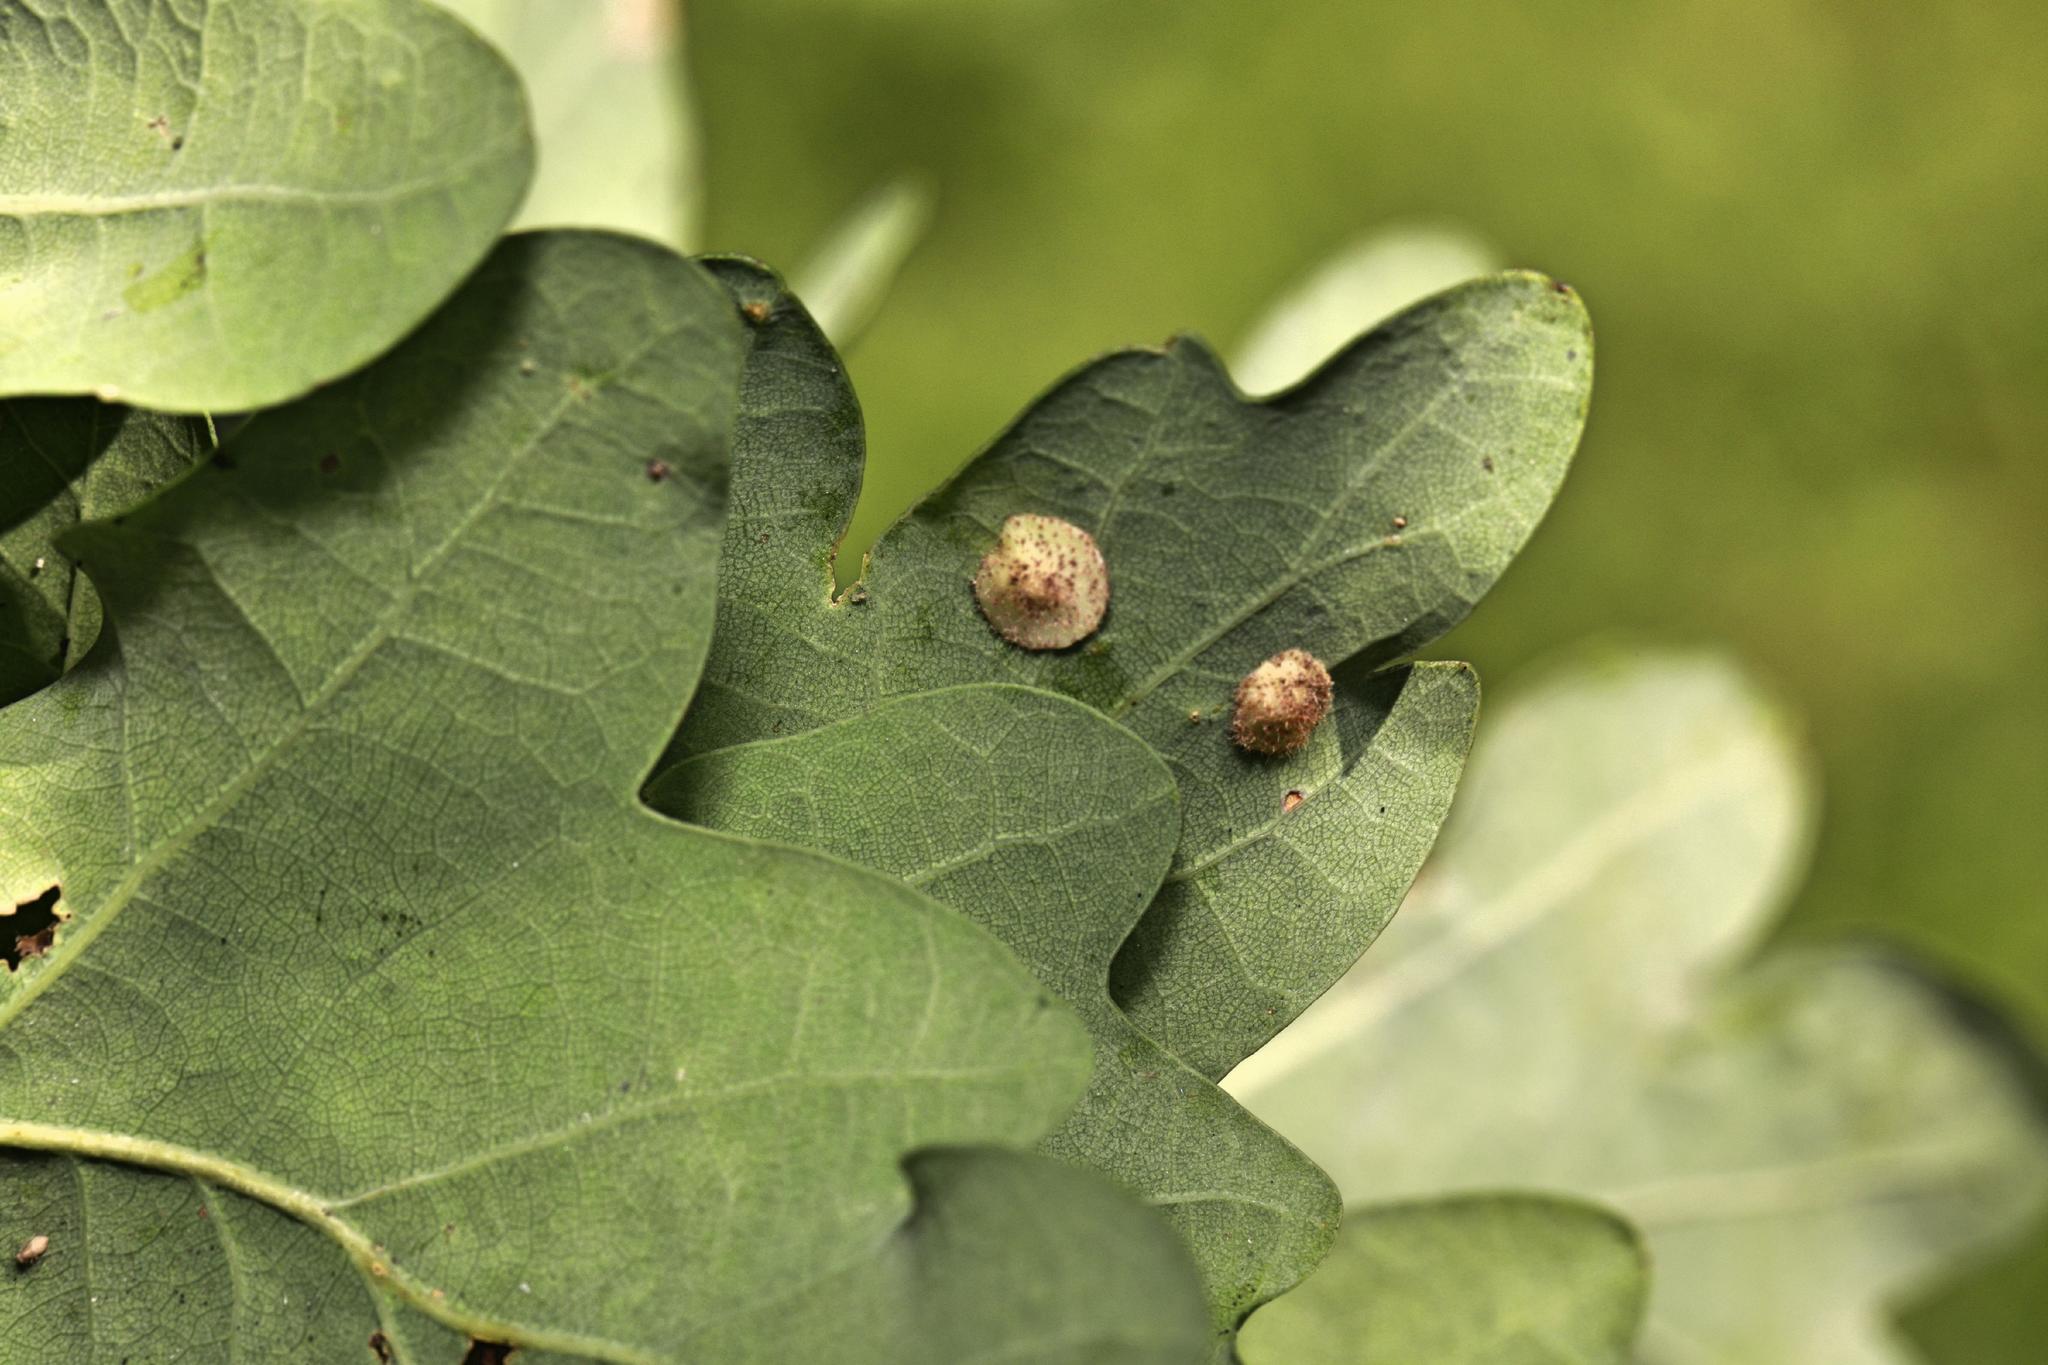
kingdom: Animalia
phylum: Arthropoda
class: Insecta
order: Hymenoptera
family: Cynipidae
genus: Neuroterus
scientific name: Neuroterus quercusbaccarum
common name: Common spangle gall
